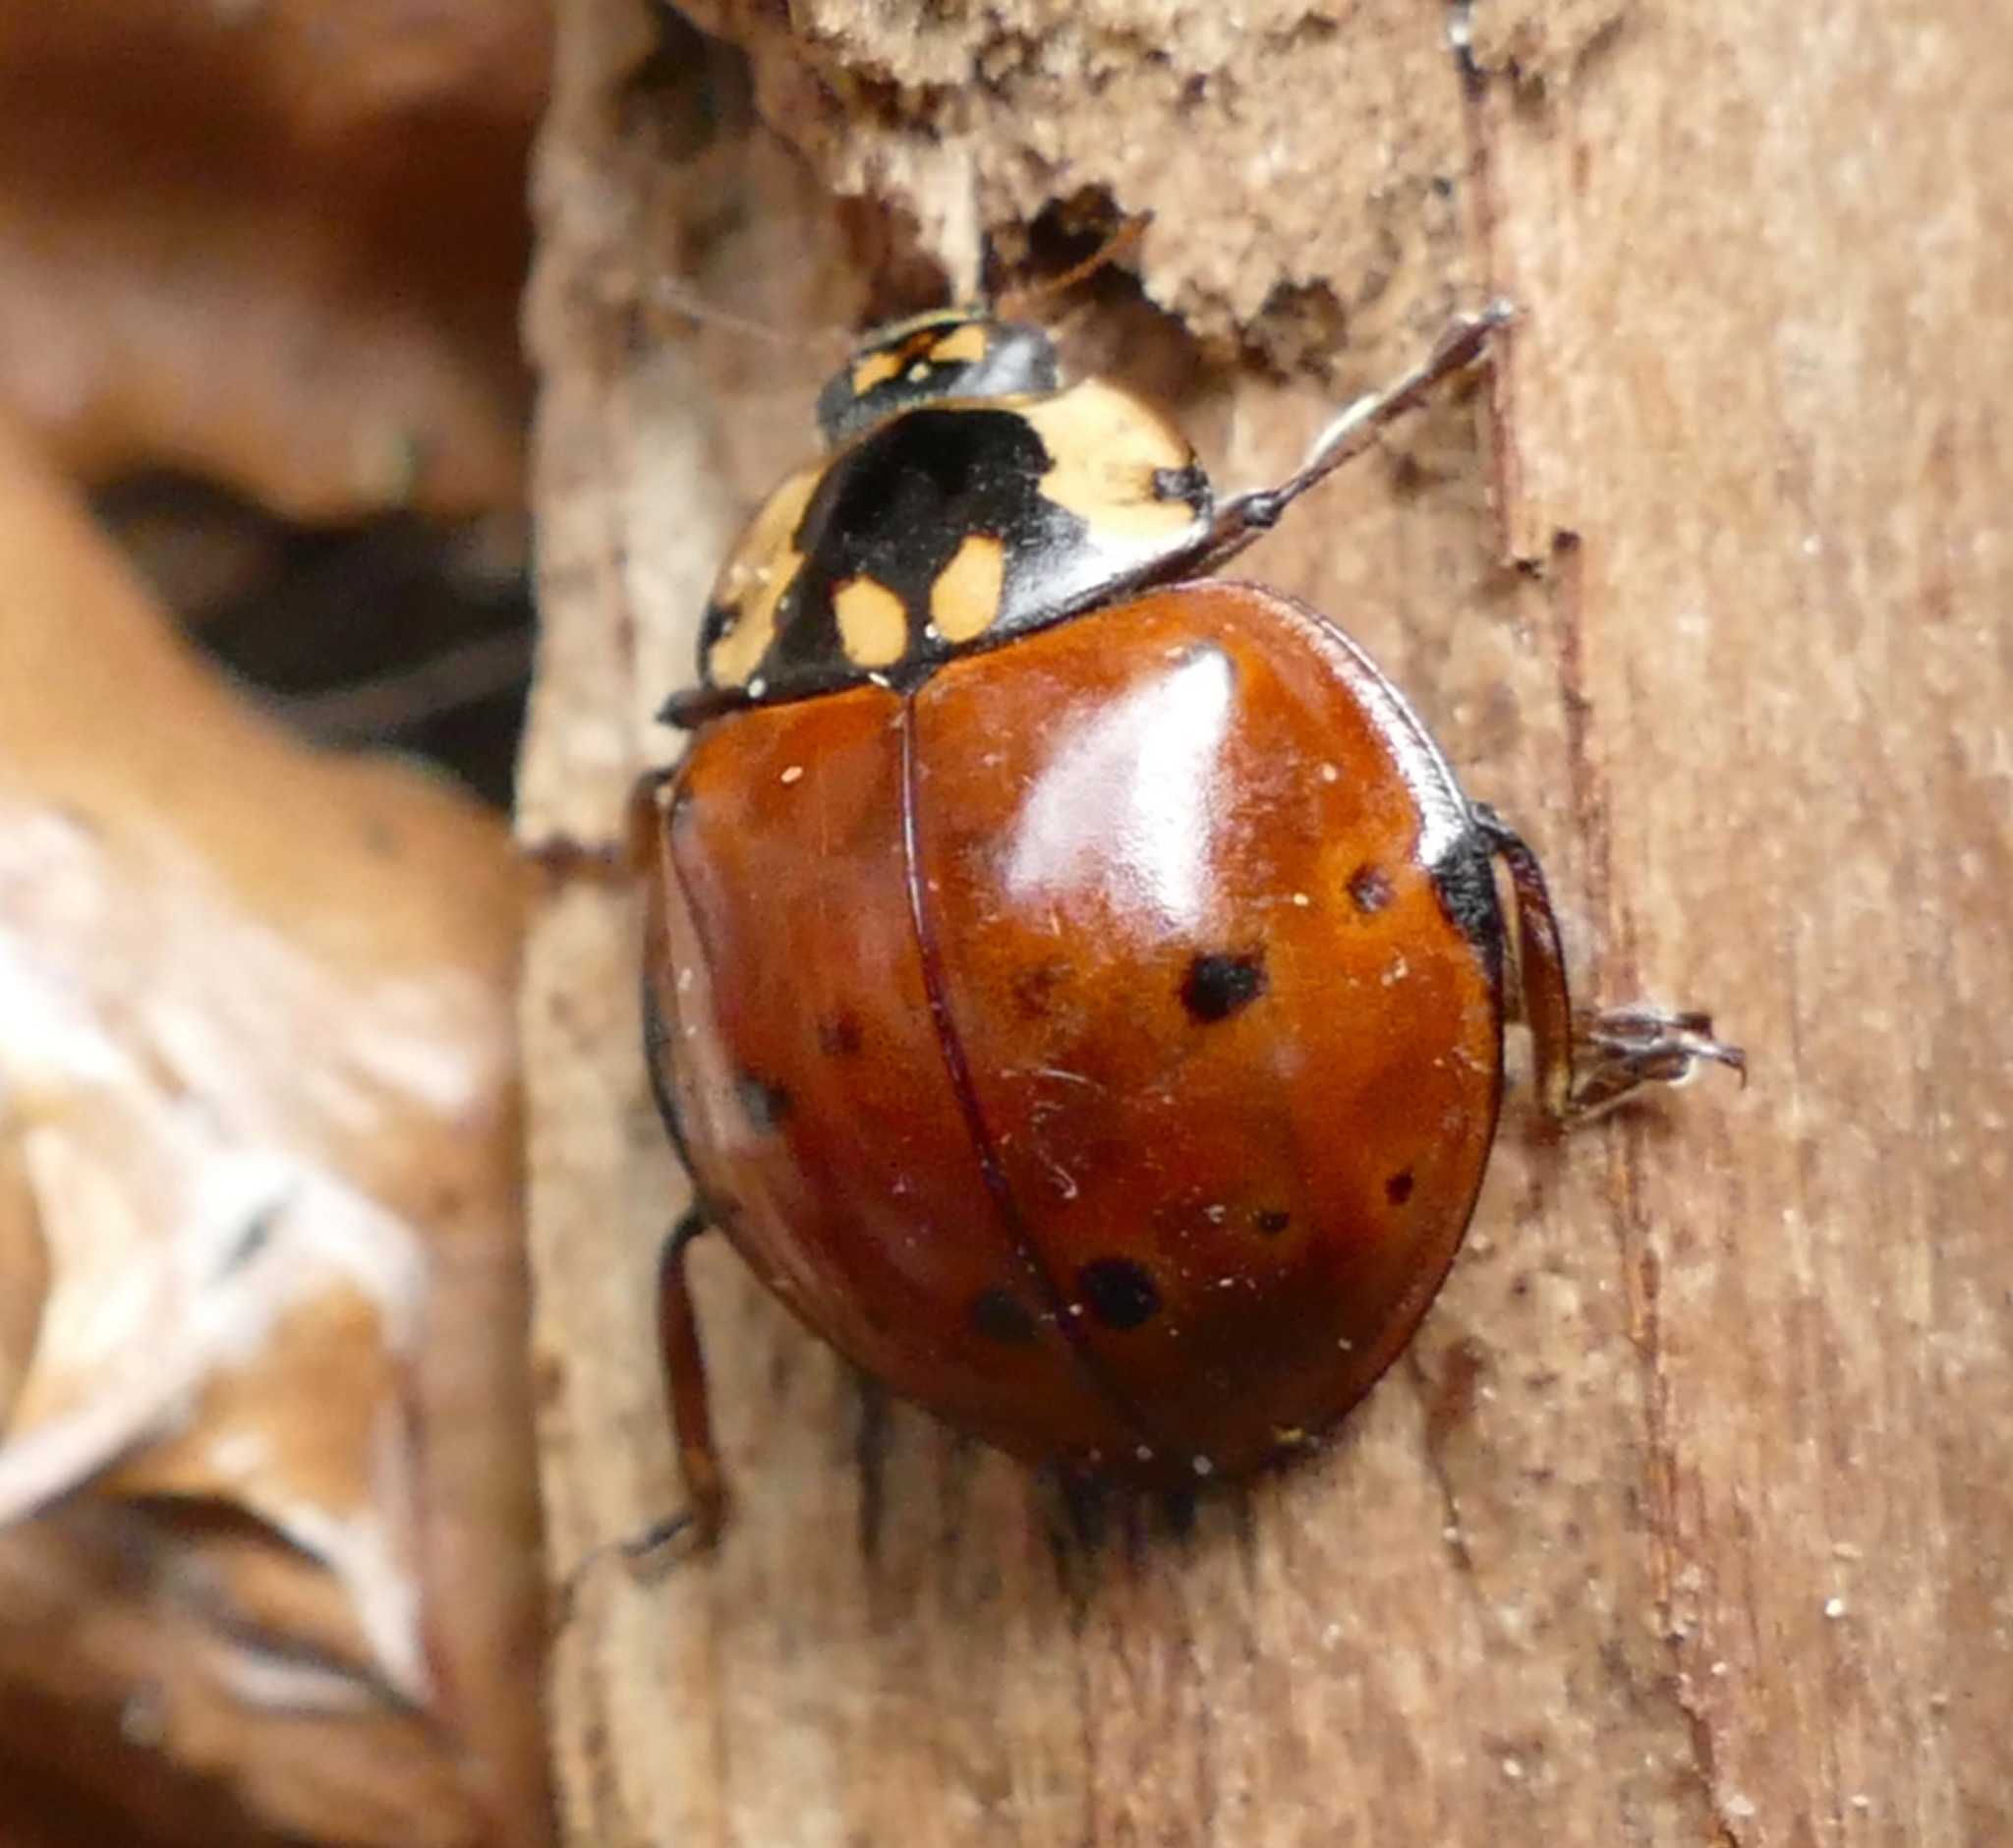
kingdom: Animalia
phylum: Arthropoda
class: Insecta
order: Coleoptera
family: Coccinellidae
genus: Anatis
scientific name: Anatis rathvoni
